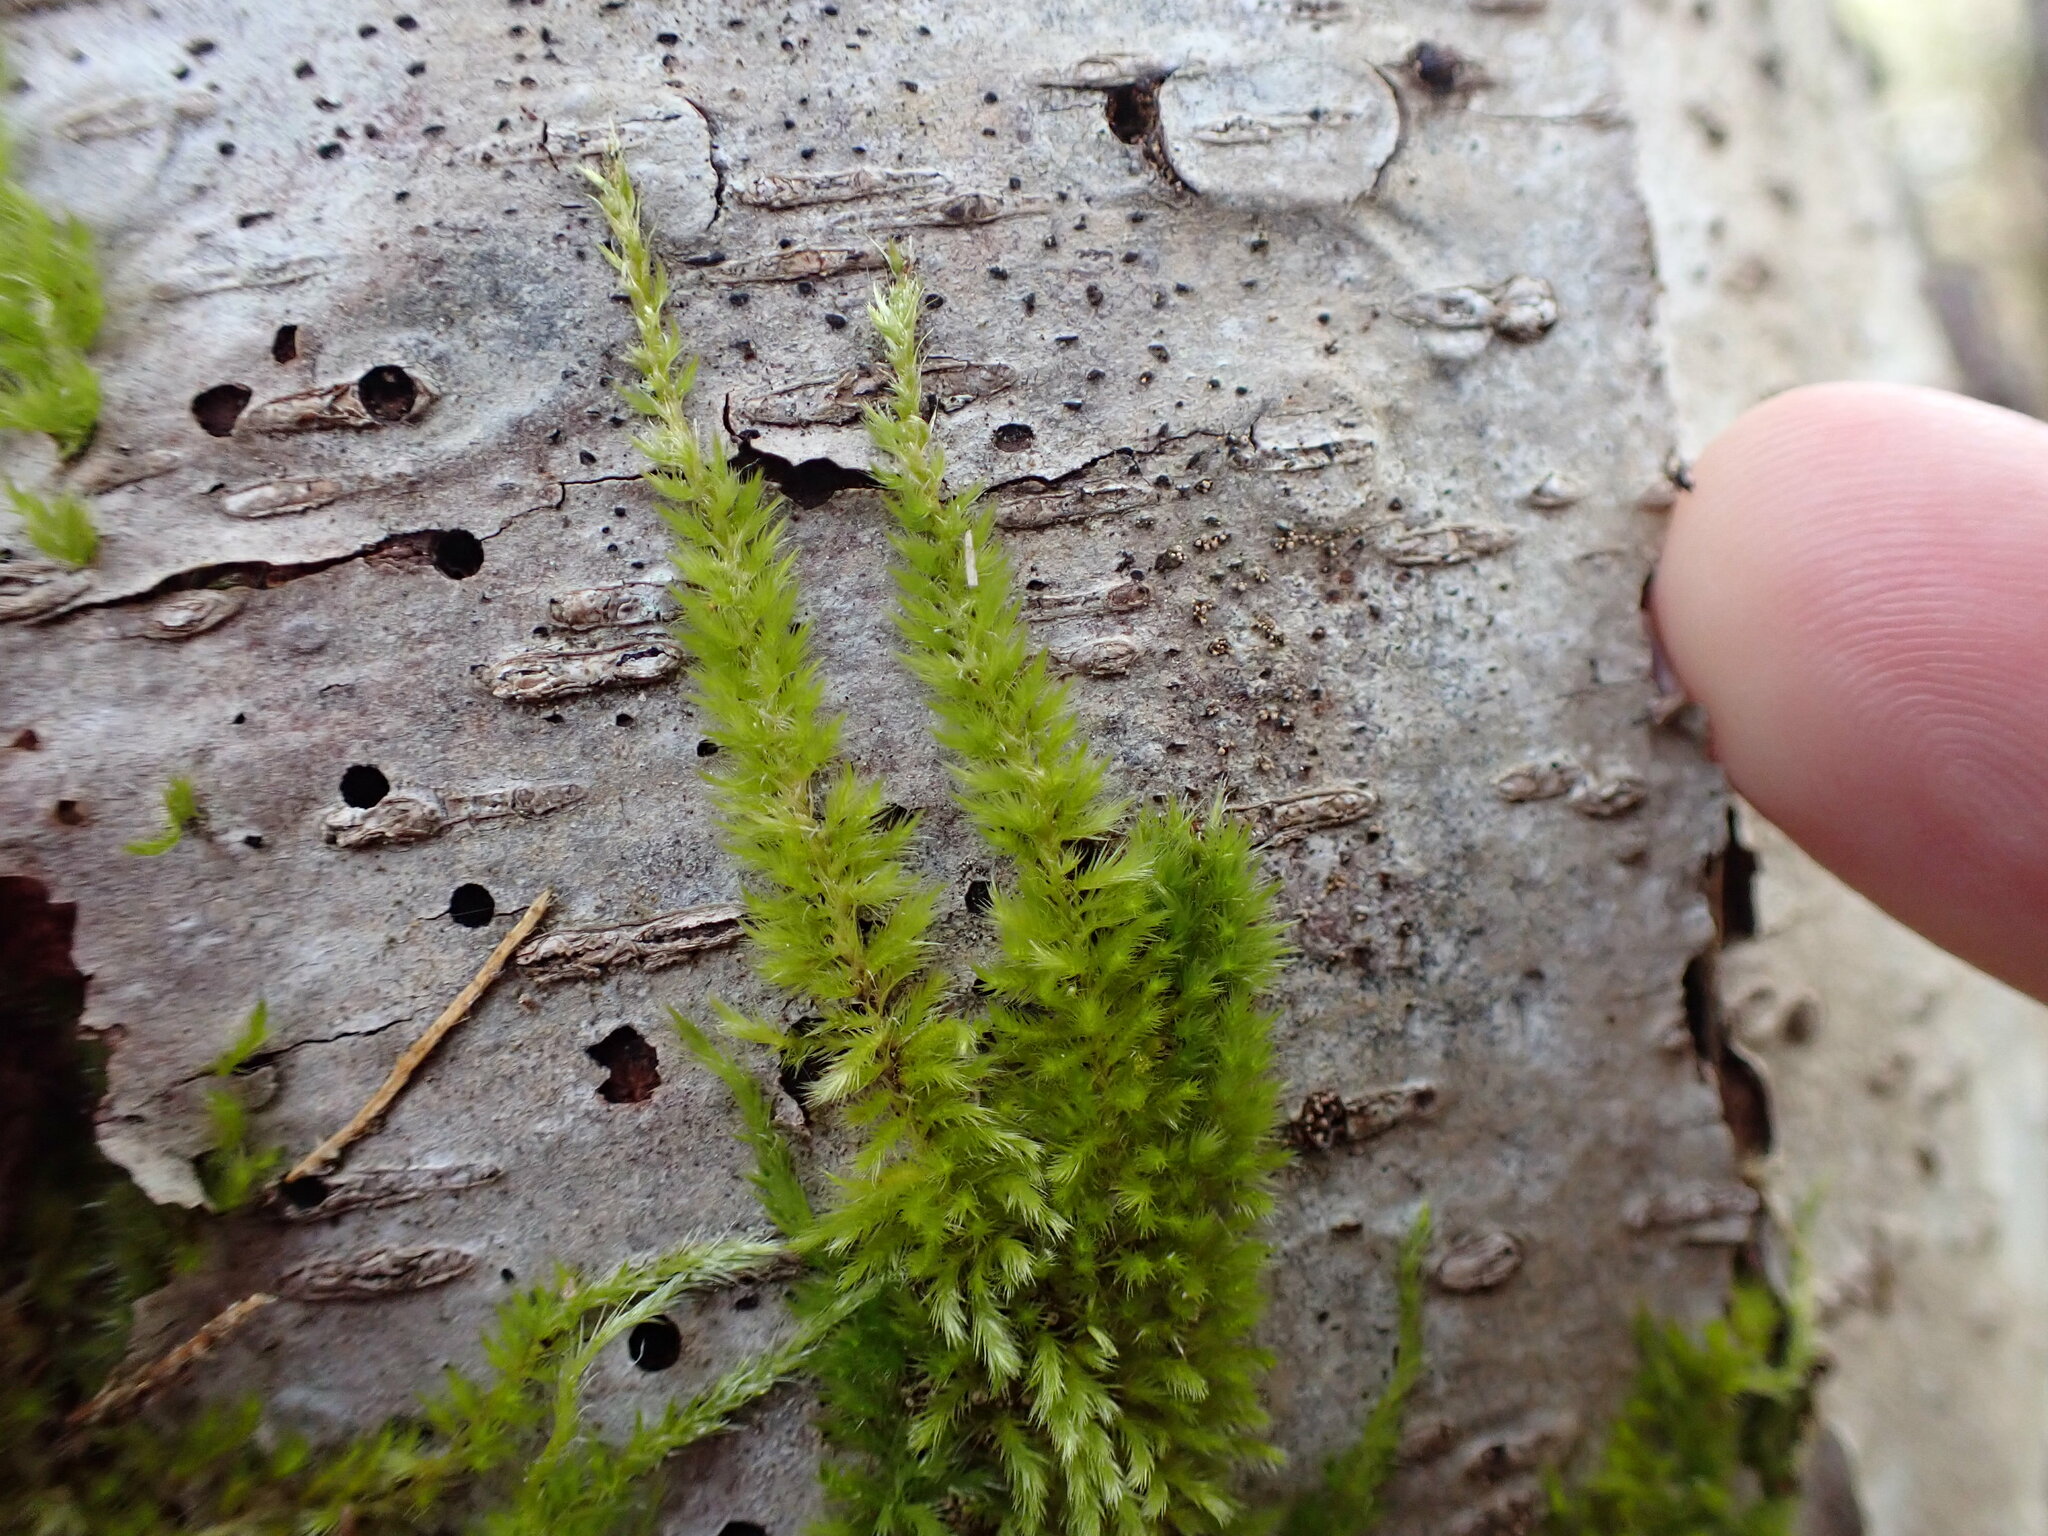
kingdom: Plantae
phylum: Bryophyta
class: Bryopsida
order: Hypnales
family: Brachytheciaceae
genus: Homalothecium
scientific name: Homalothecium nuttallii
